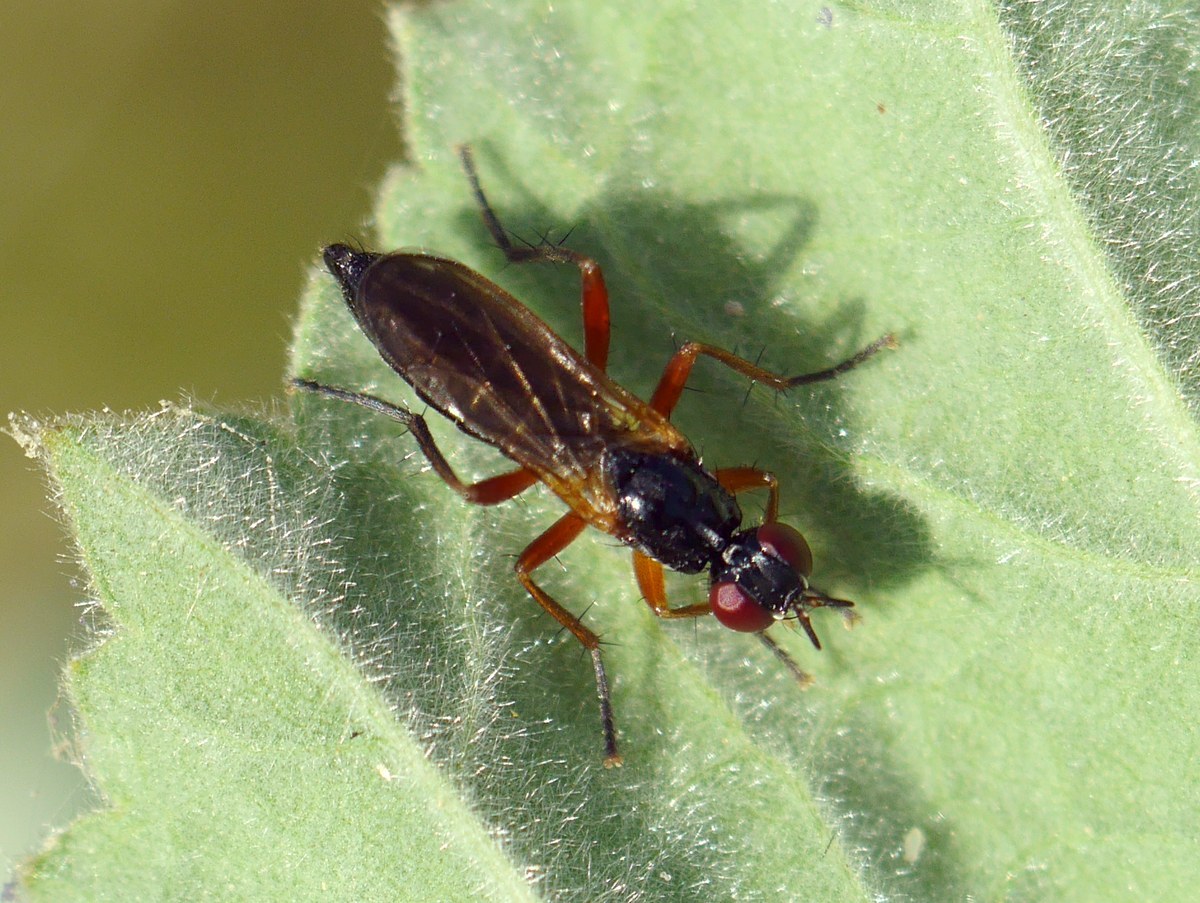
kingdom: Animalia
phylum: Arthropoda
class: Insecta
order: Diptera
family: Scathophagidae
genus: Cordilura
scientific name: Cordilura albilabris
